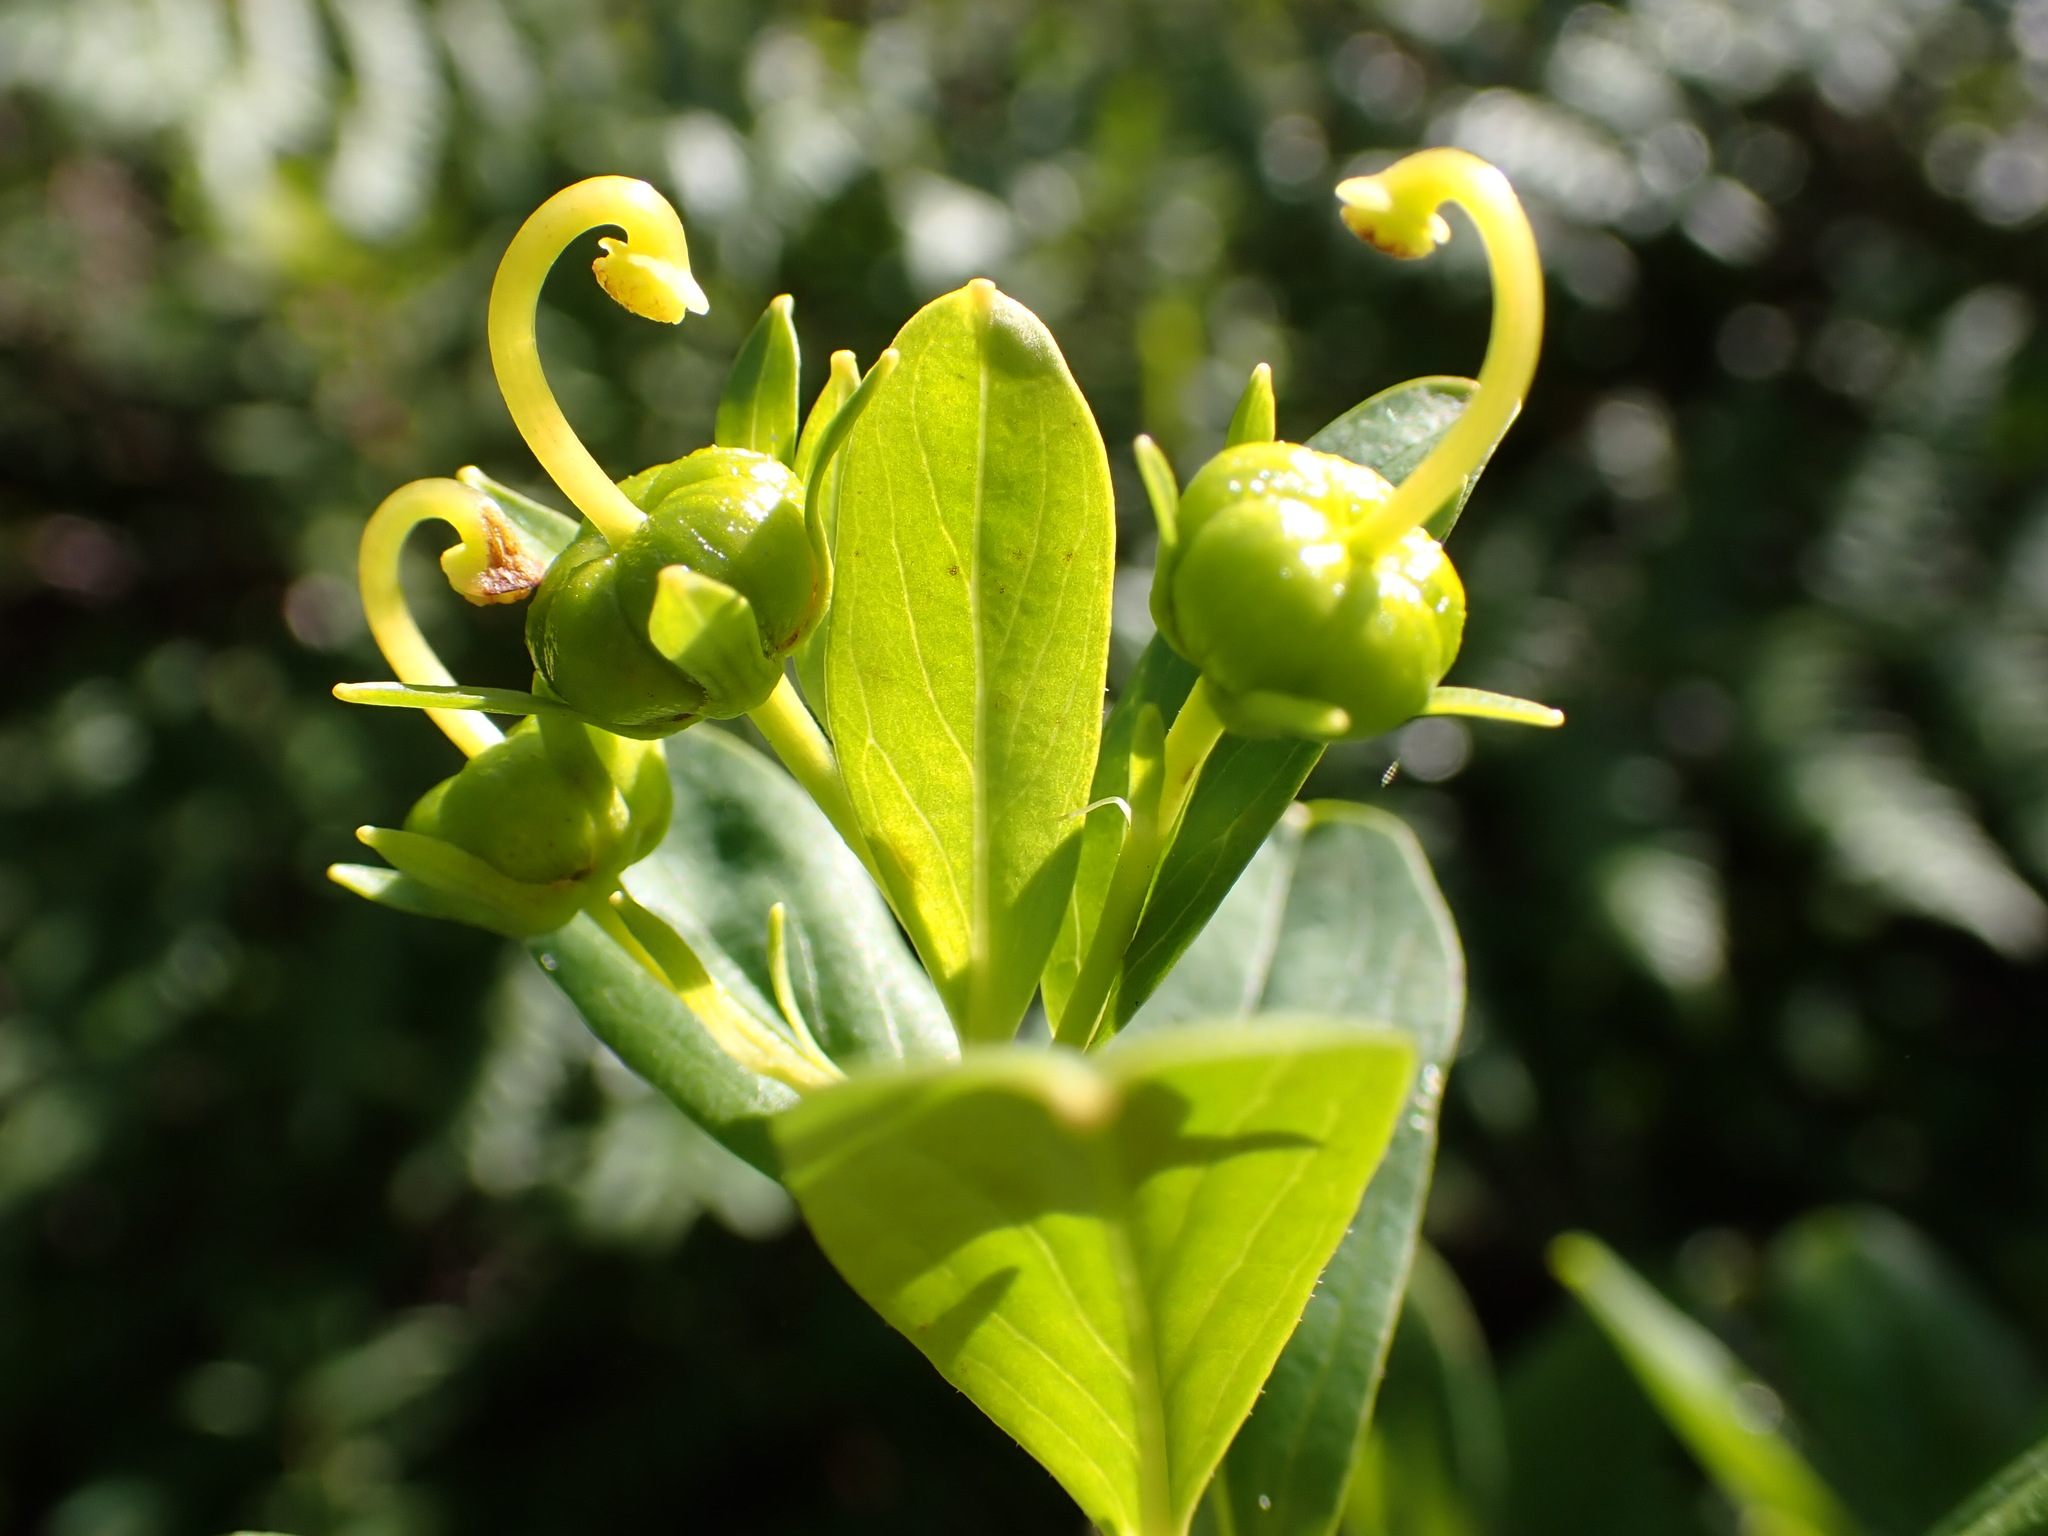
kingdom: Plantae
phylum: Tracheophyta
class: Magnoliopsida
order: Ericales
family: Ericaceae
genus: Elliottia
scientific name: Elliottia pyroliflora
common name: Copperbush
